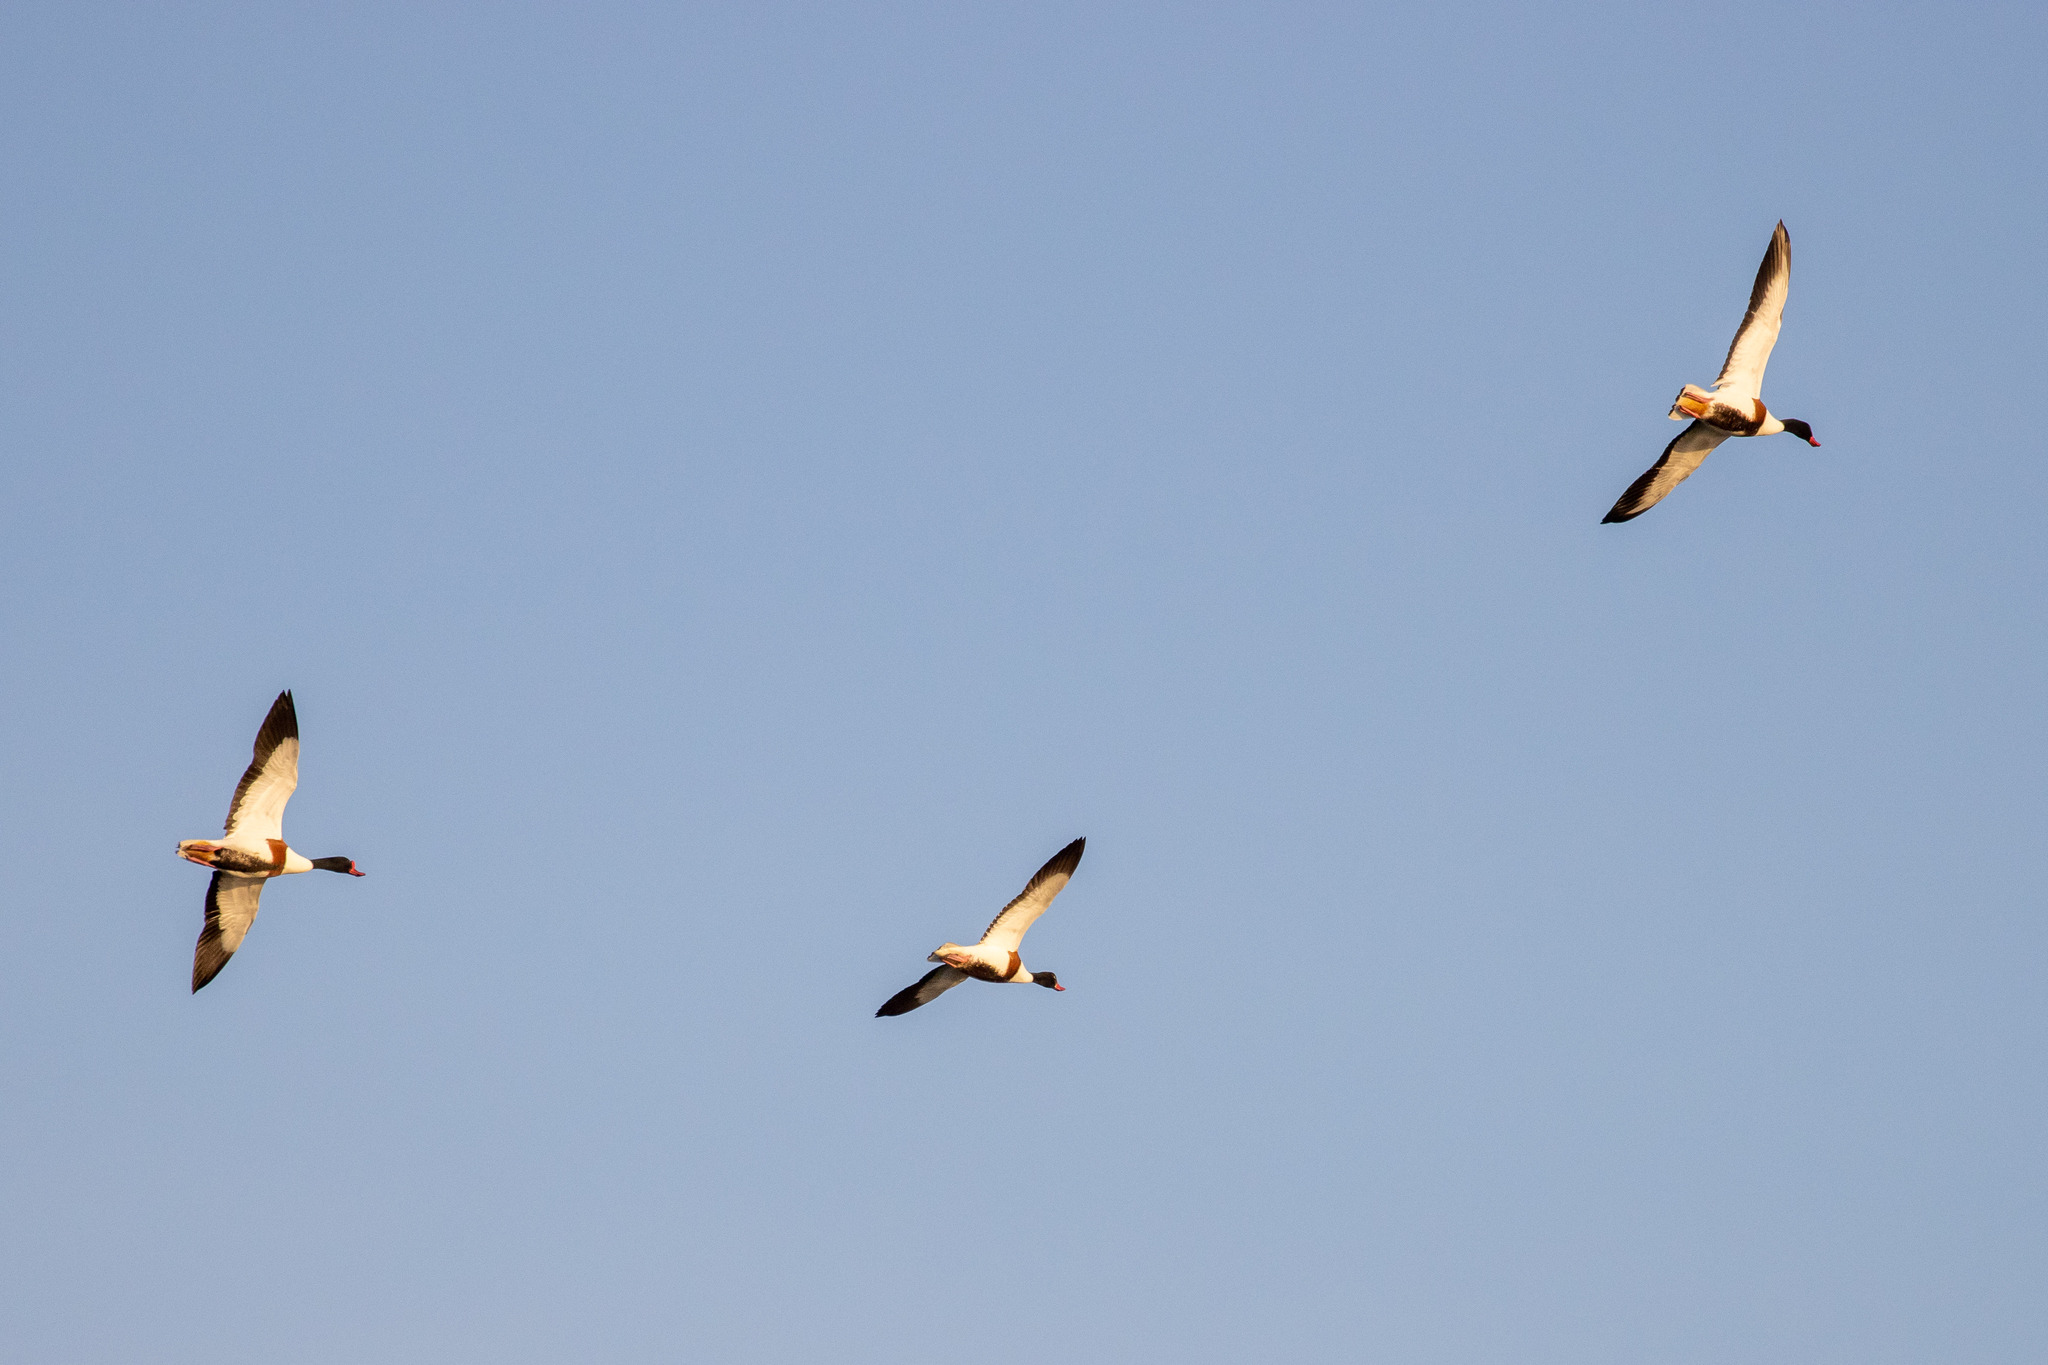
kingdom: Animalia
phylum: Chordata
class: Aves
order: Anseriformes
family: Anatidae
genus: Tadorna
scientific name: Tadorna tadorna
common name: Common shelduck
